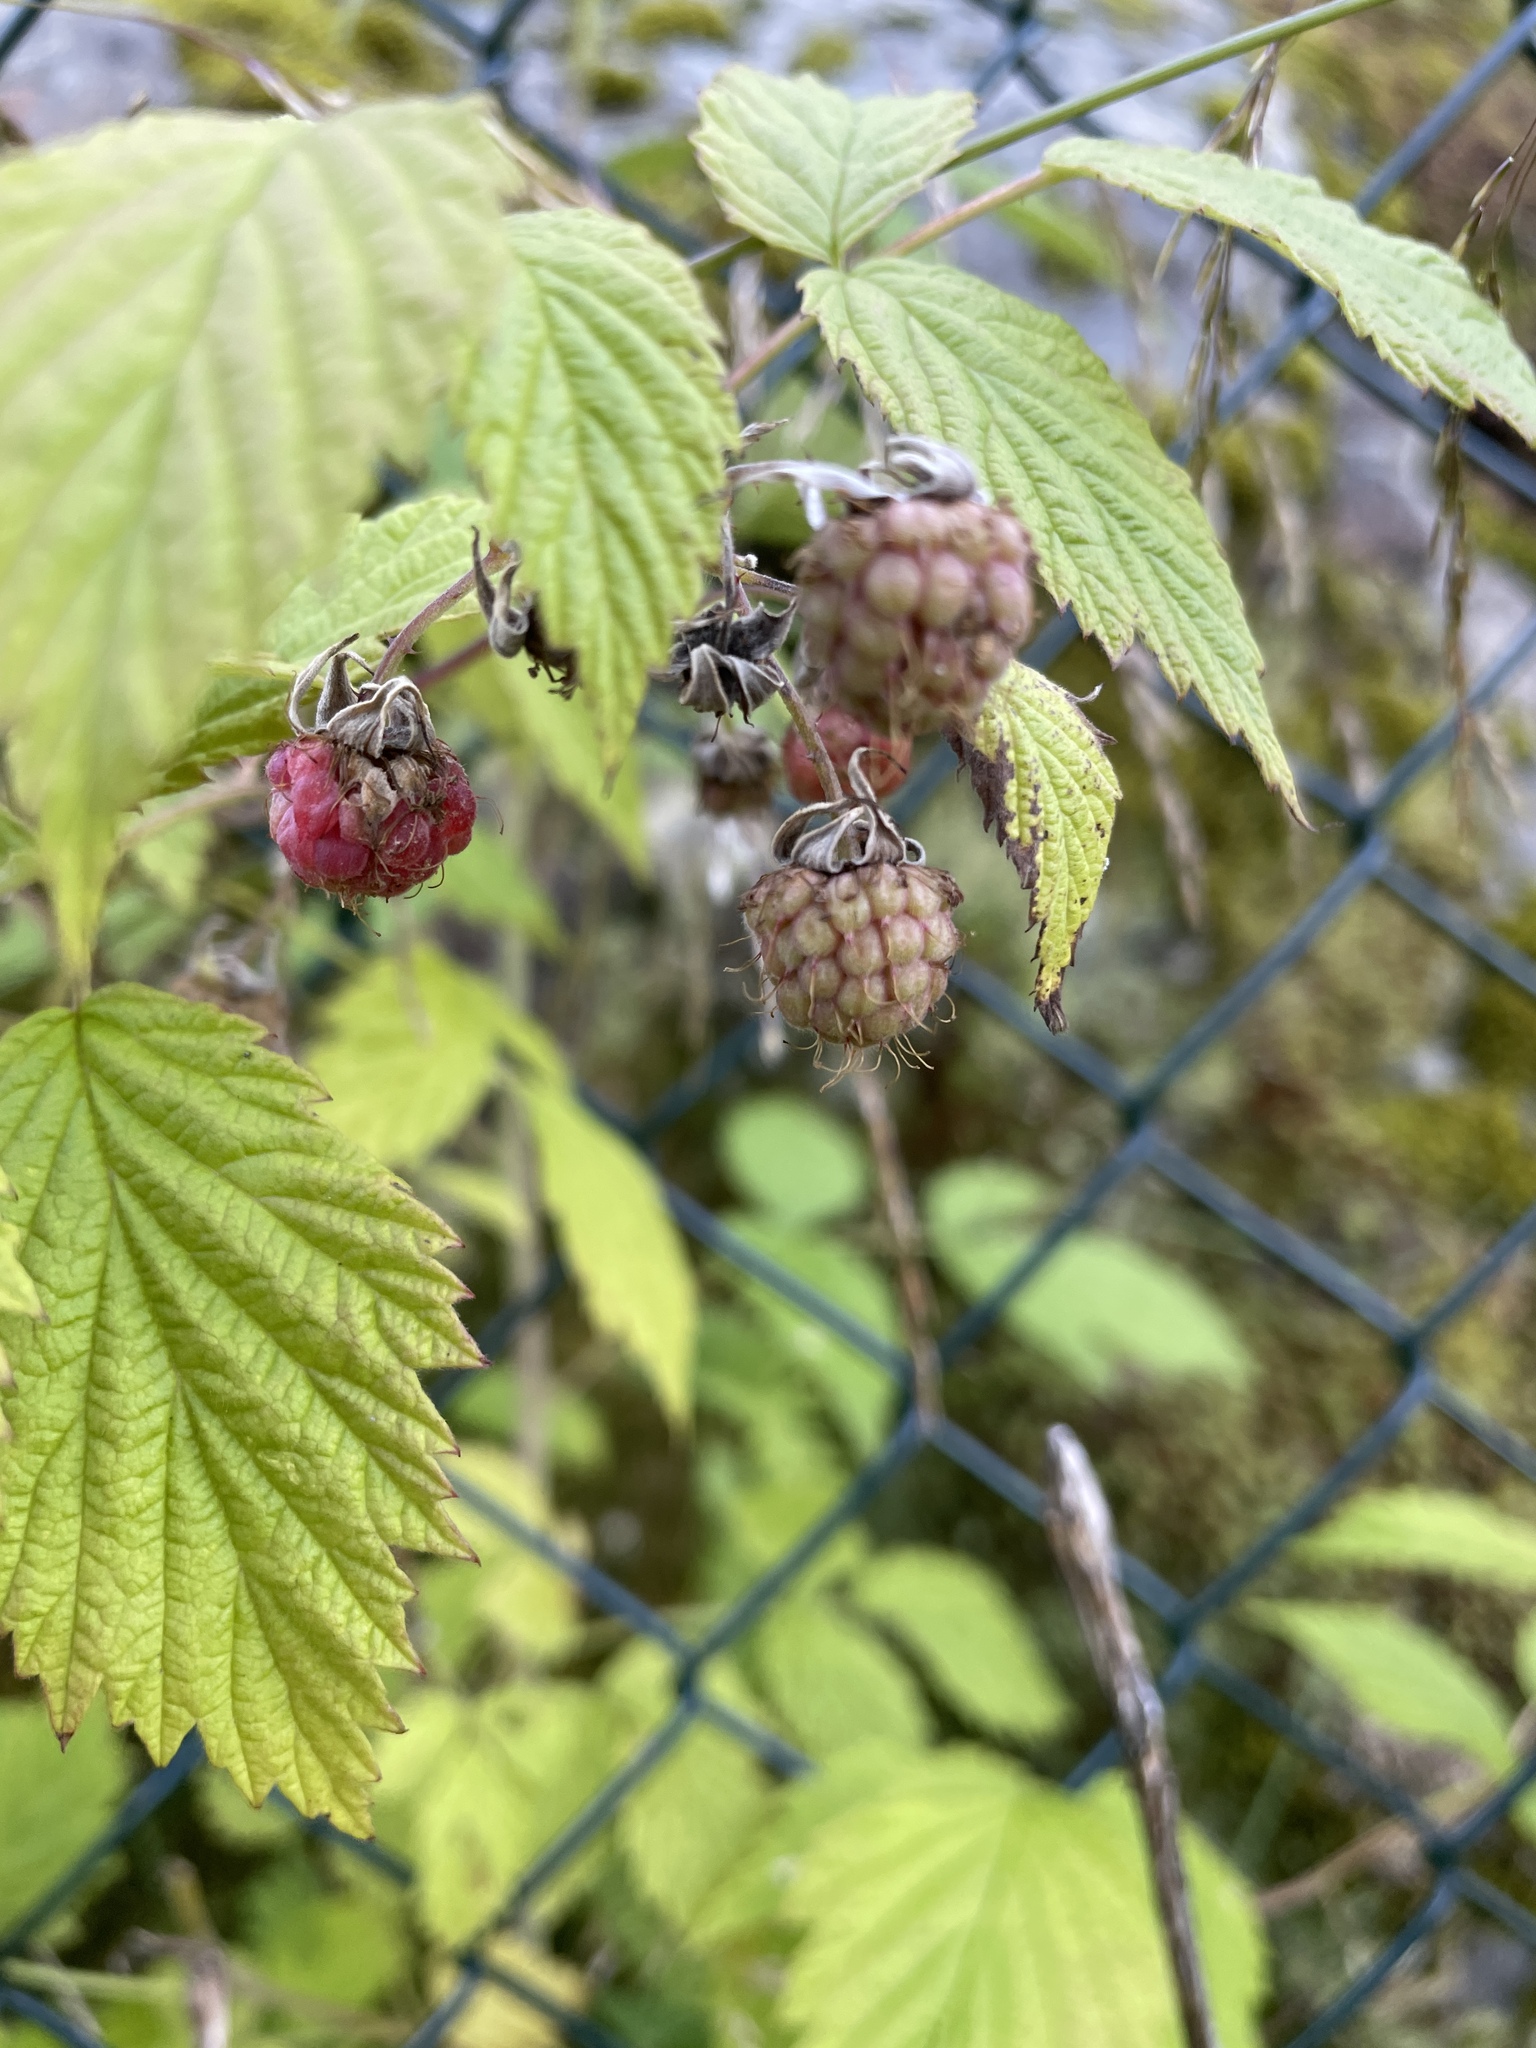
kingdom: Plantae
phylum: Tracheophyta
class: Magnoliopsida
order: Rosales
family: Rosaceae
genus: Rubus
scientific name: Rubus idaeus
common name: Raspberry
